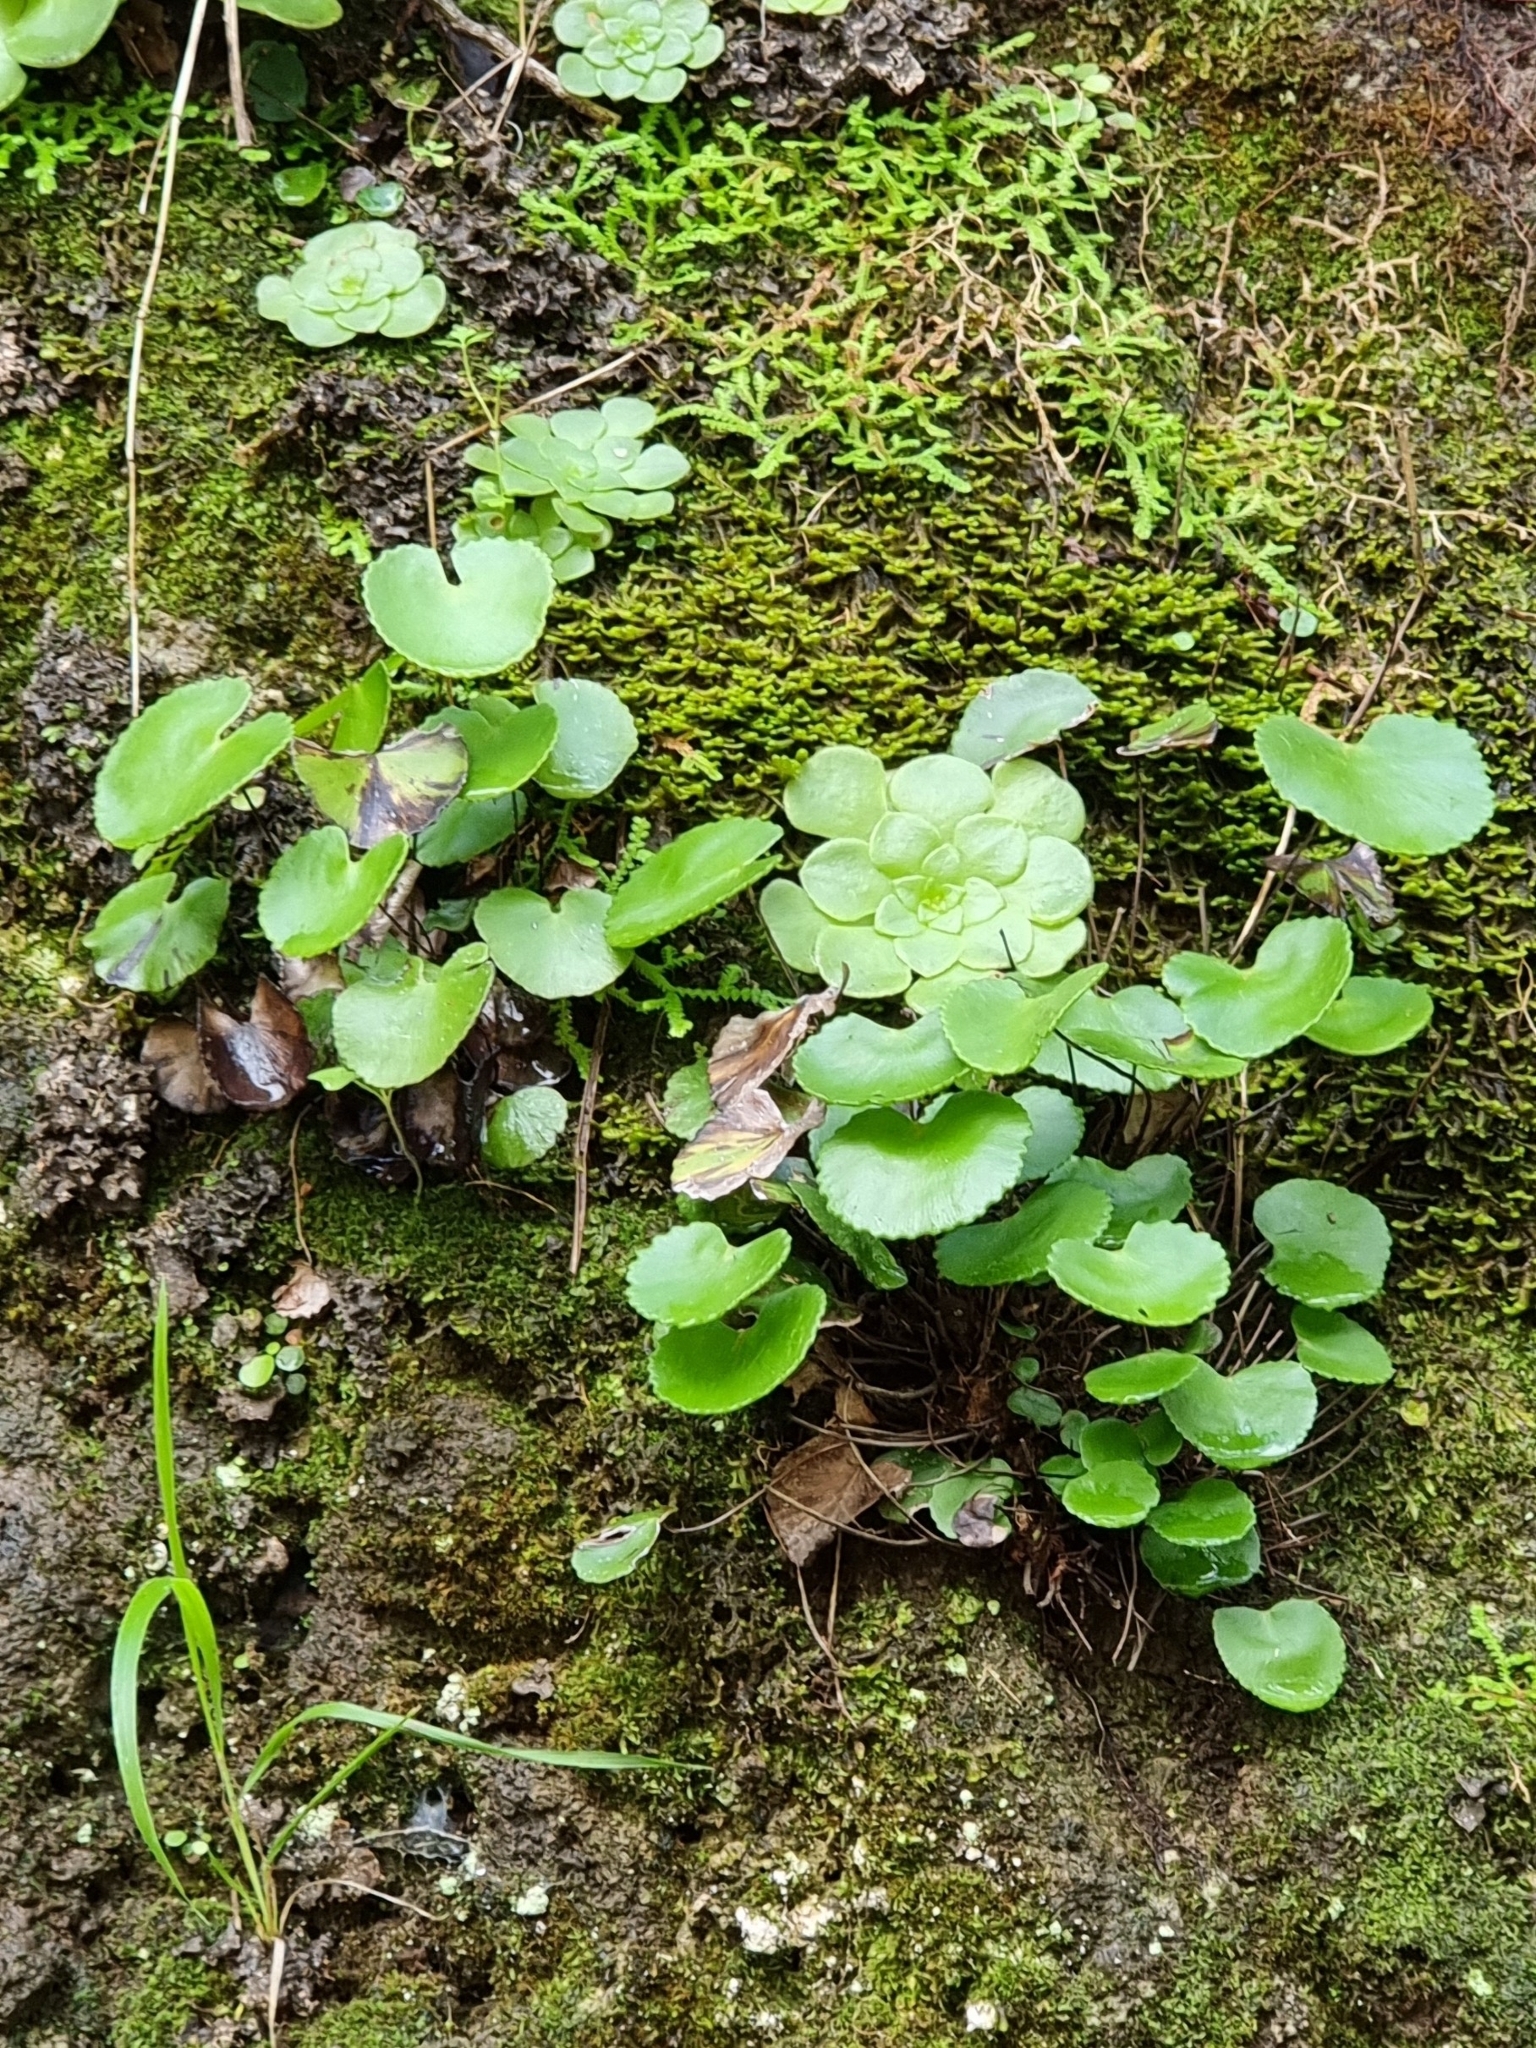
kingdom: Plantae
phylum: Tracheophyta
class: Polypodiopsida
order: Polypodiales
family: Pteridaceae
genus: Adiantum
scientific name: Adiantum reniforme
